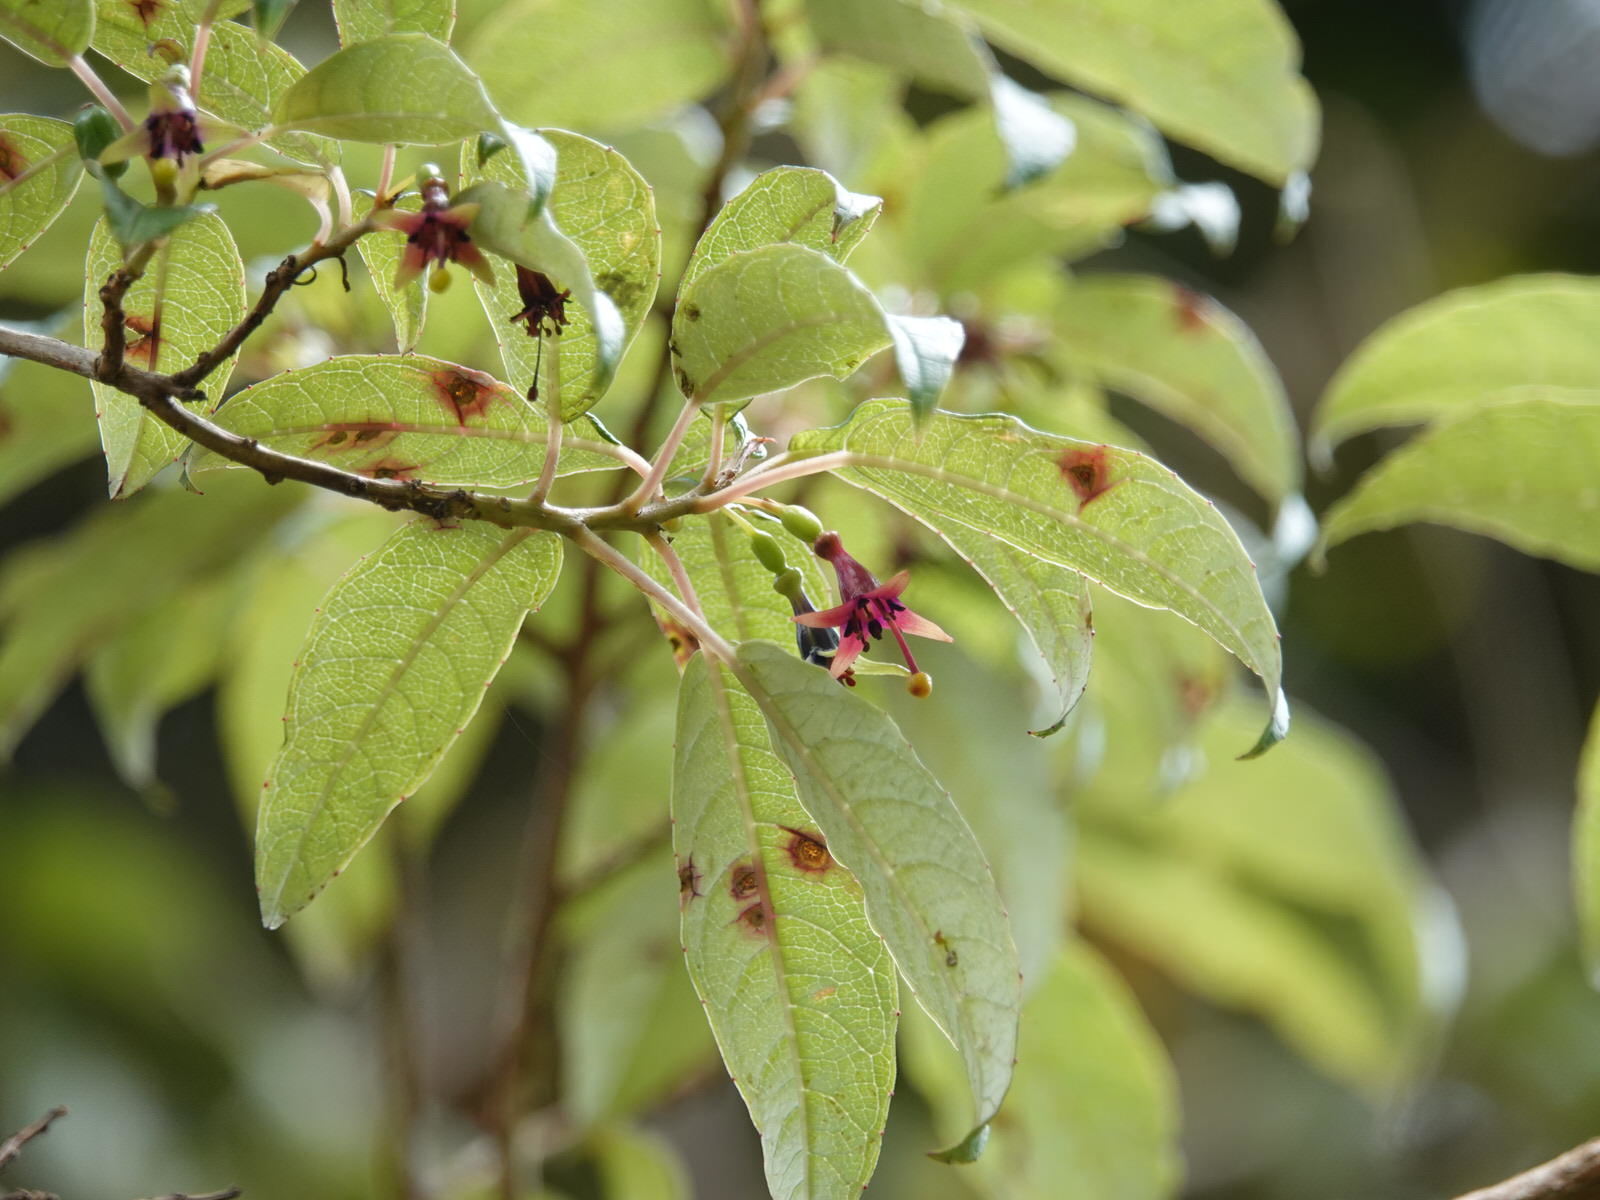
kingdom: Plantae
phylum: Tracheophyta
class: Magnoliopsida
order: Myrtales
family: Onagraceae
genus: Fuchsia
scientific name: Fuchsia excorticata
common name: Tree fuchsia
